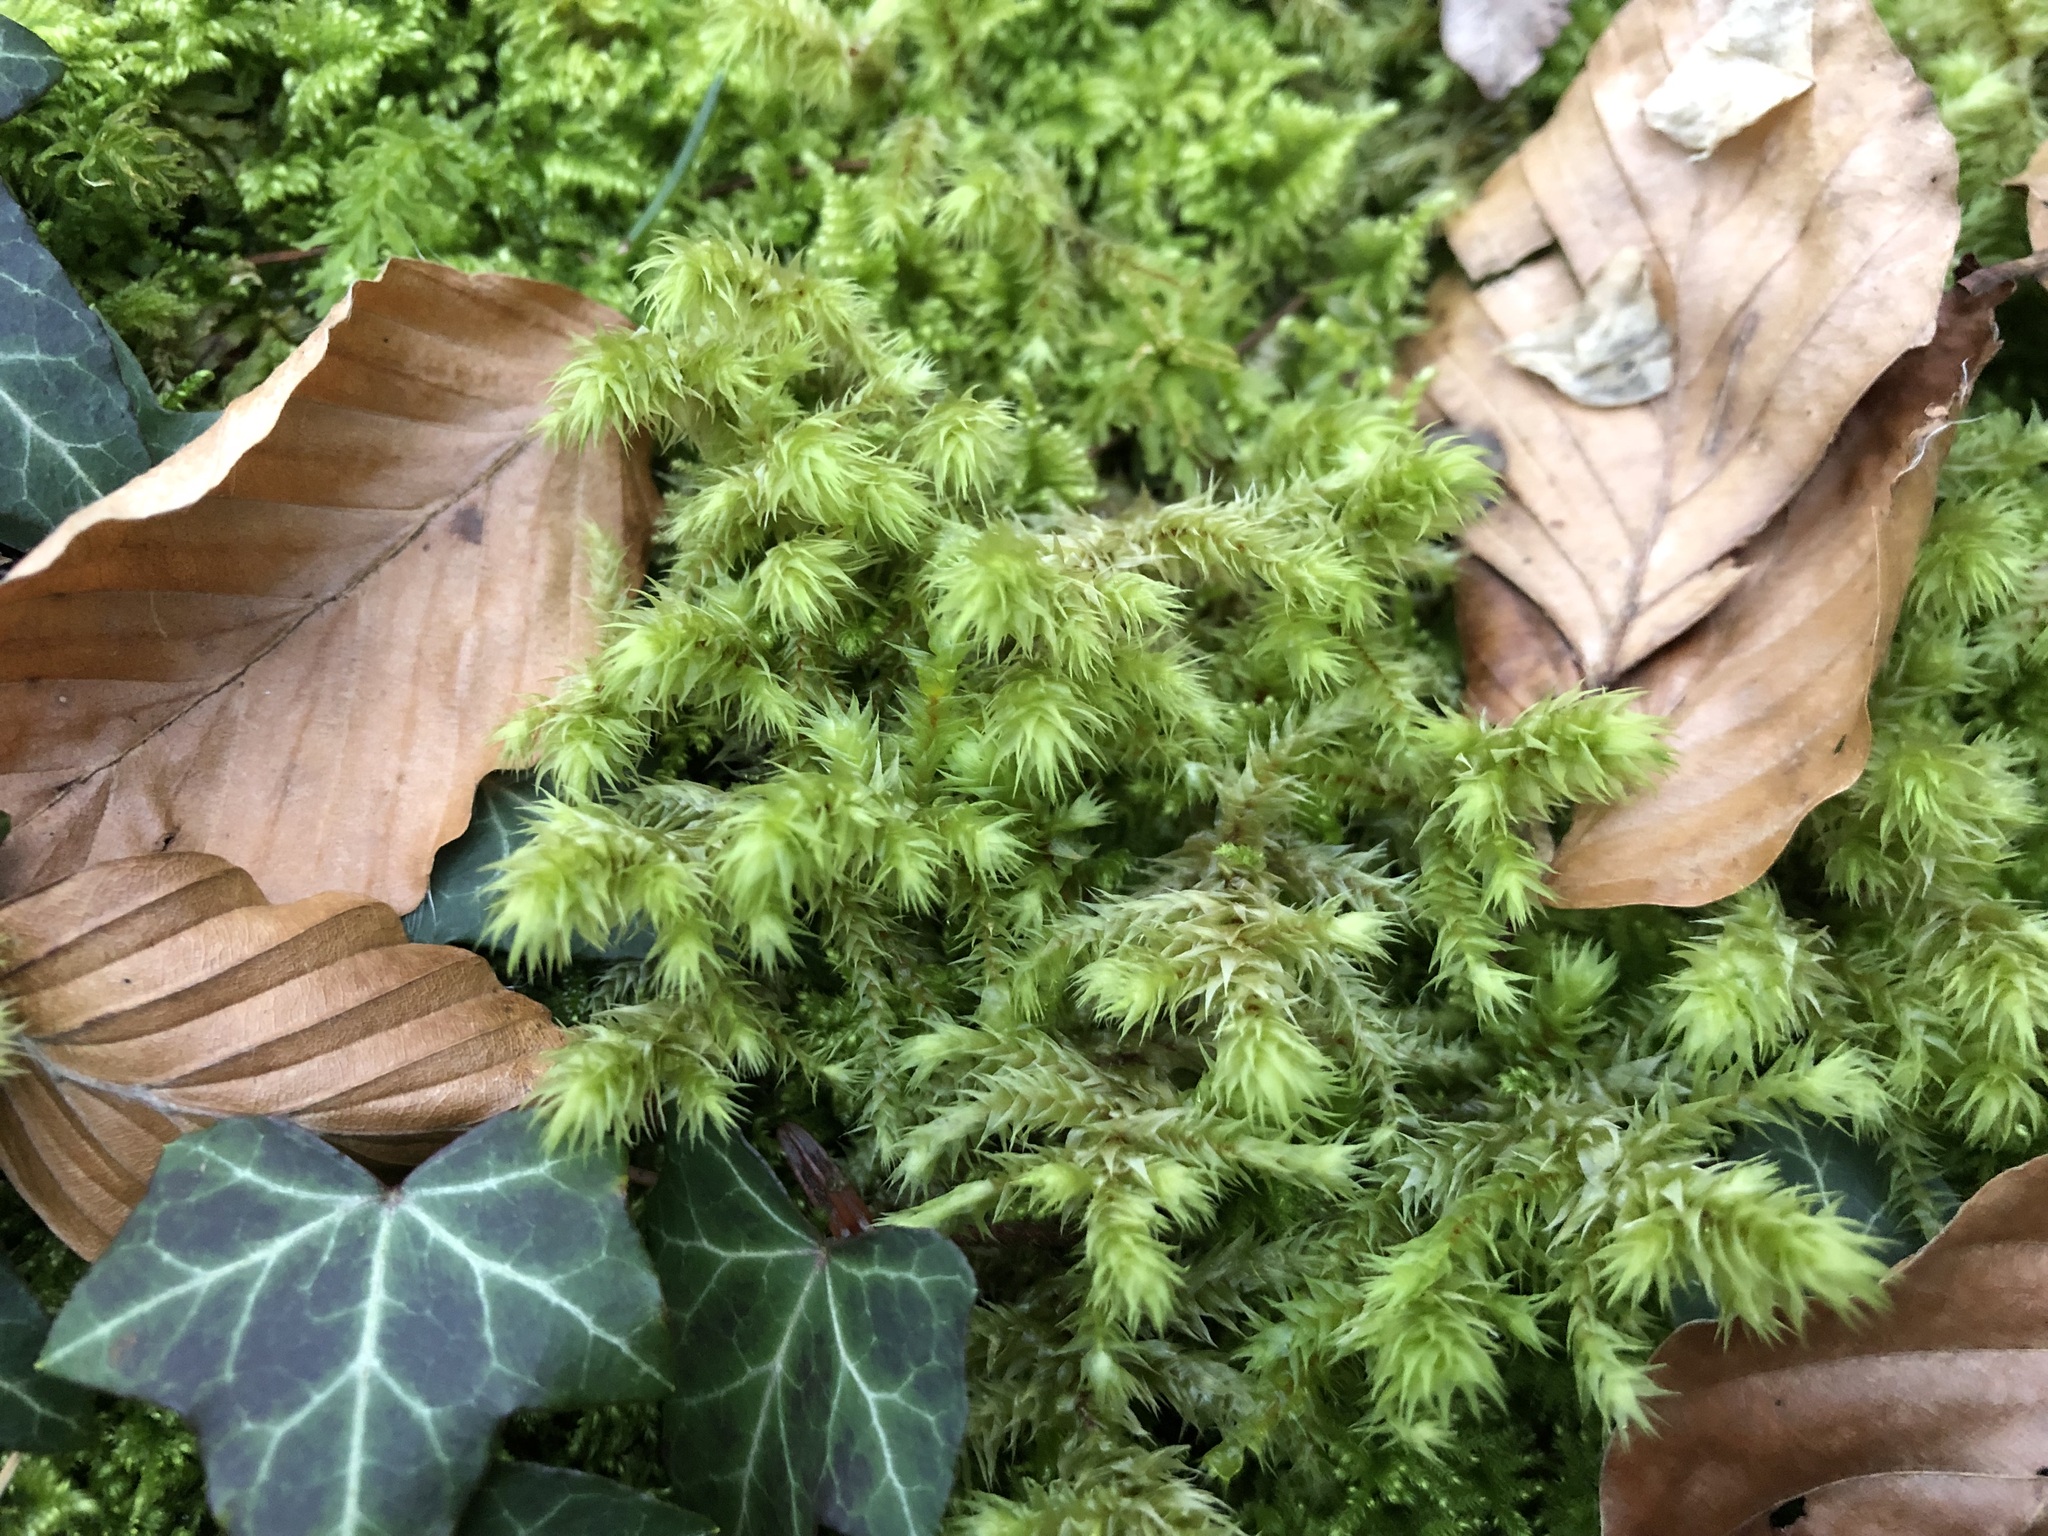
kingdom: Plantae
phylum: Bryophyta
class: Bryopsida
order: Hypnales
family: Hylocomiaceae
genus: Hylocomiadelphus
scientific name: Hylocomiadelphus triquetrus
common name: Rough goose neck moss
